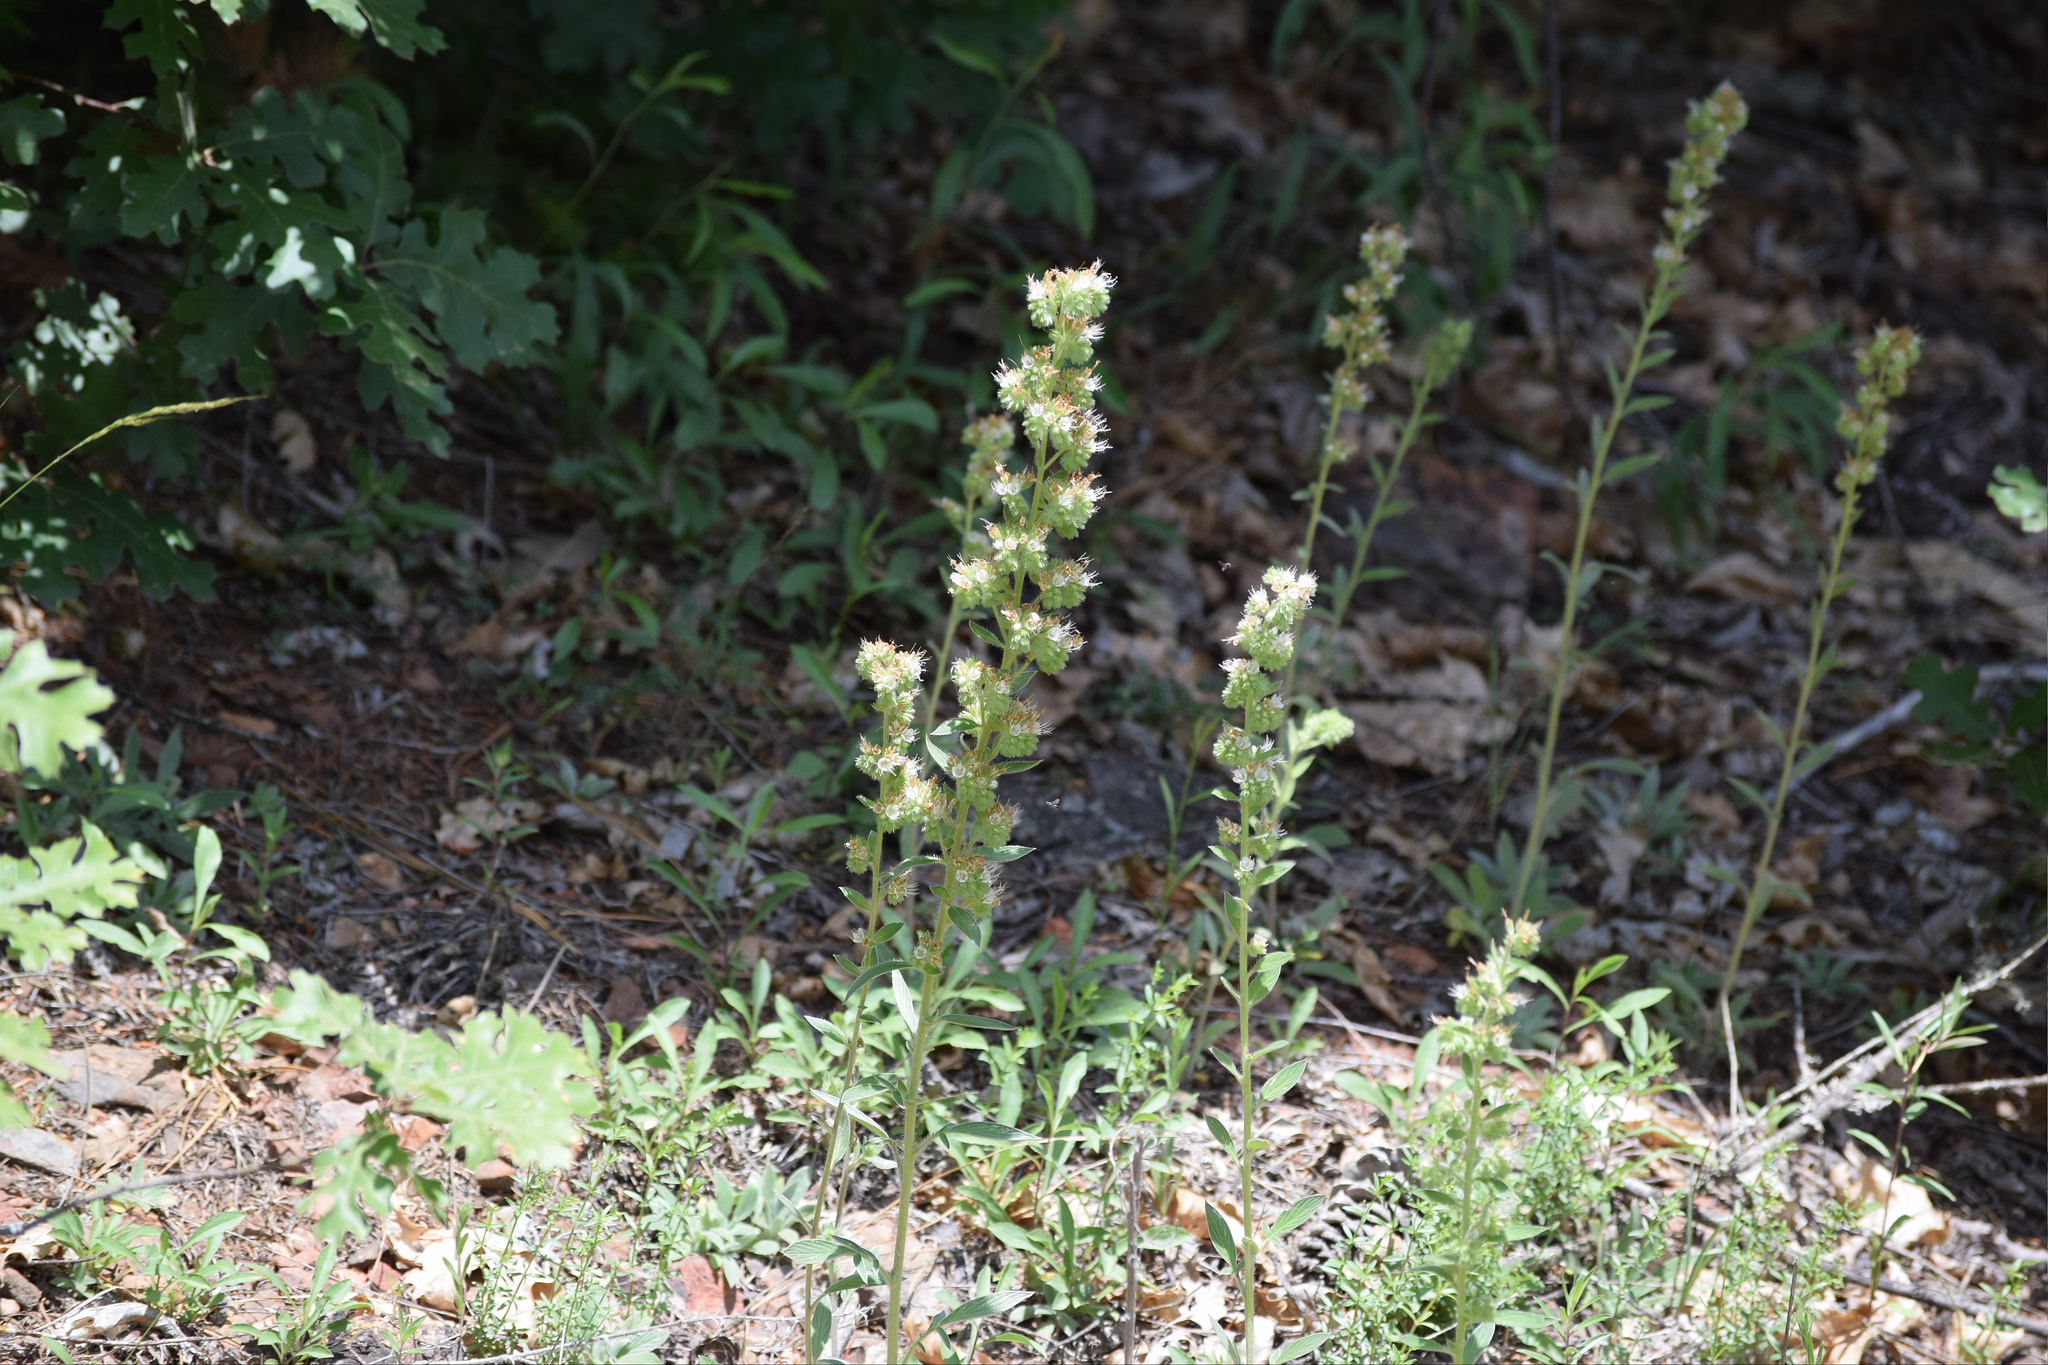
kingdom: Plantae
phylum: Tracheophyta
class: Magnoliopsida
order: Boraginales
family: Hydrophyllaceae
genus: Phacelia
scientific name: Phacelia heterophylla
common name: Variable-leaved phacelia
